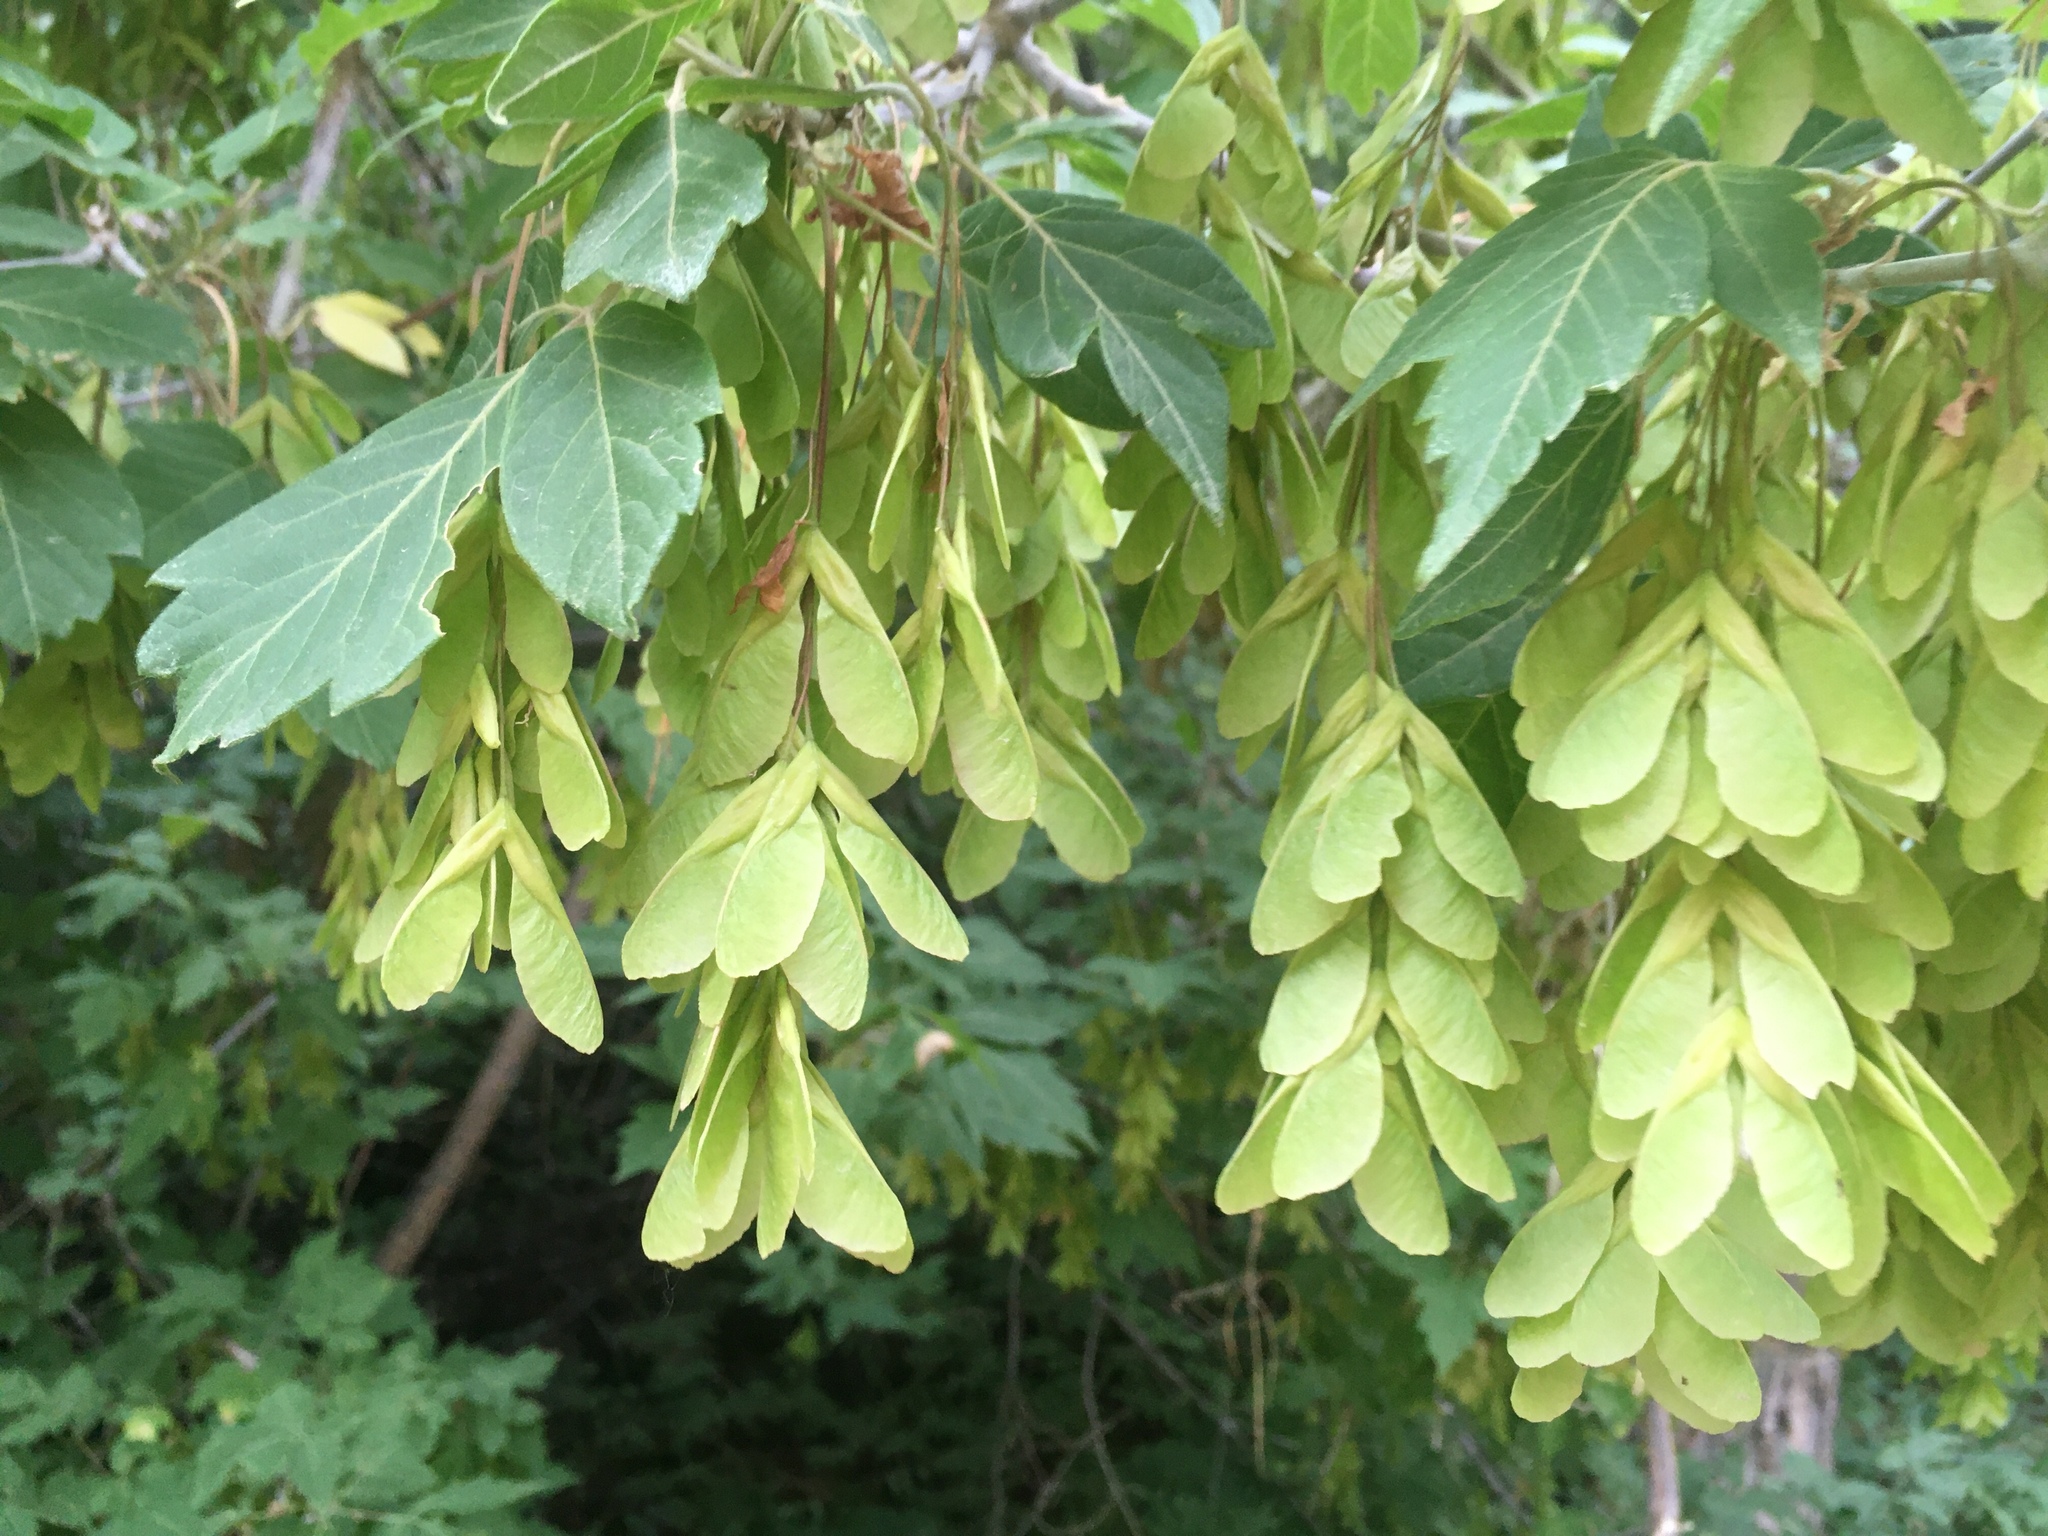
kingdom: Plantae
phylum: Tracheophyta
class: Magnoliopsida
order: Sapindales
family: Sapindaceae
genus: Acer
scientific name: Acer negundo
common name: Ashleaf maple
